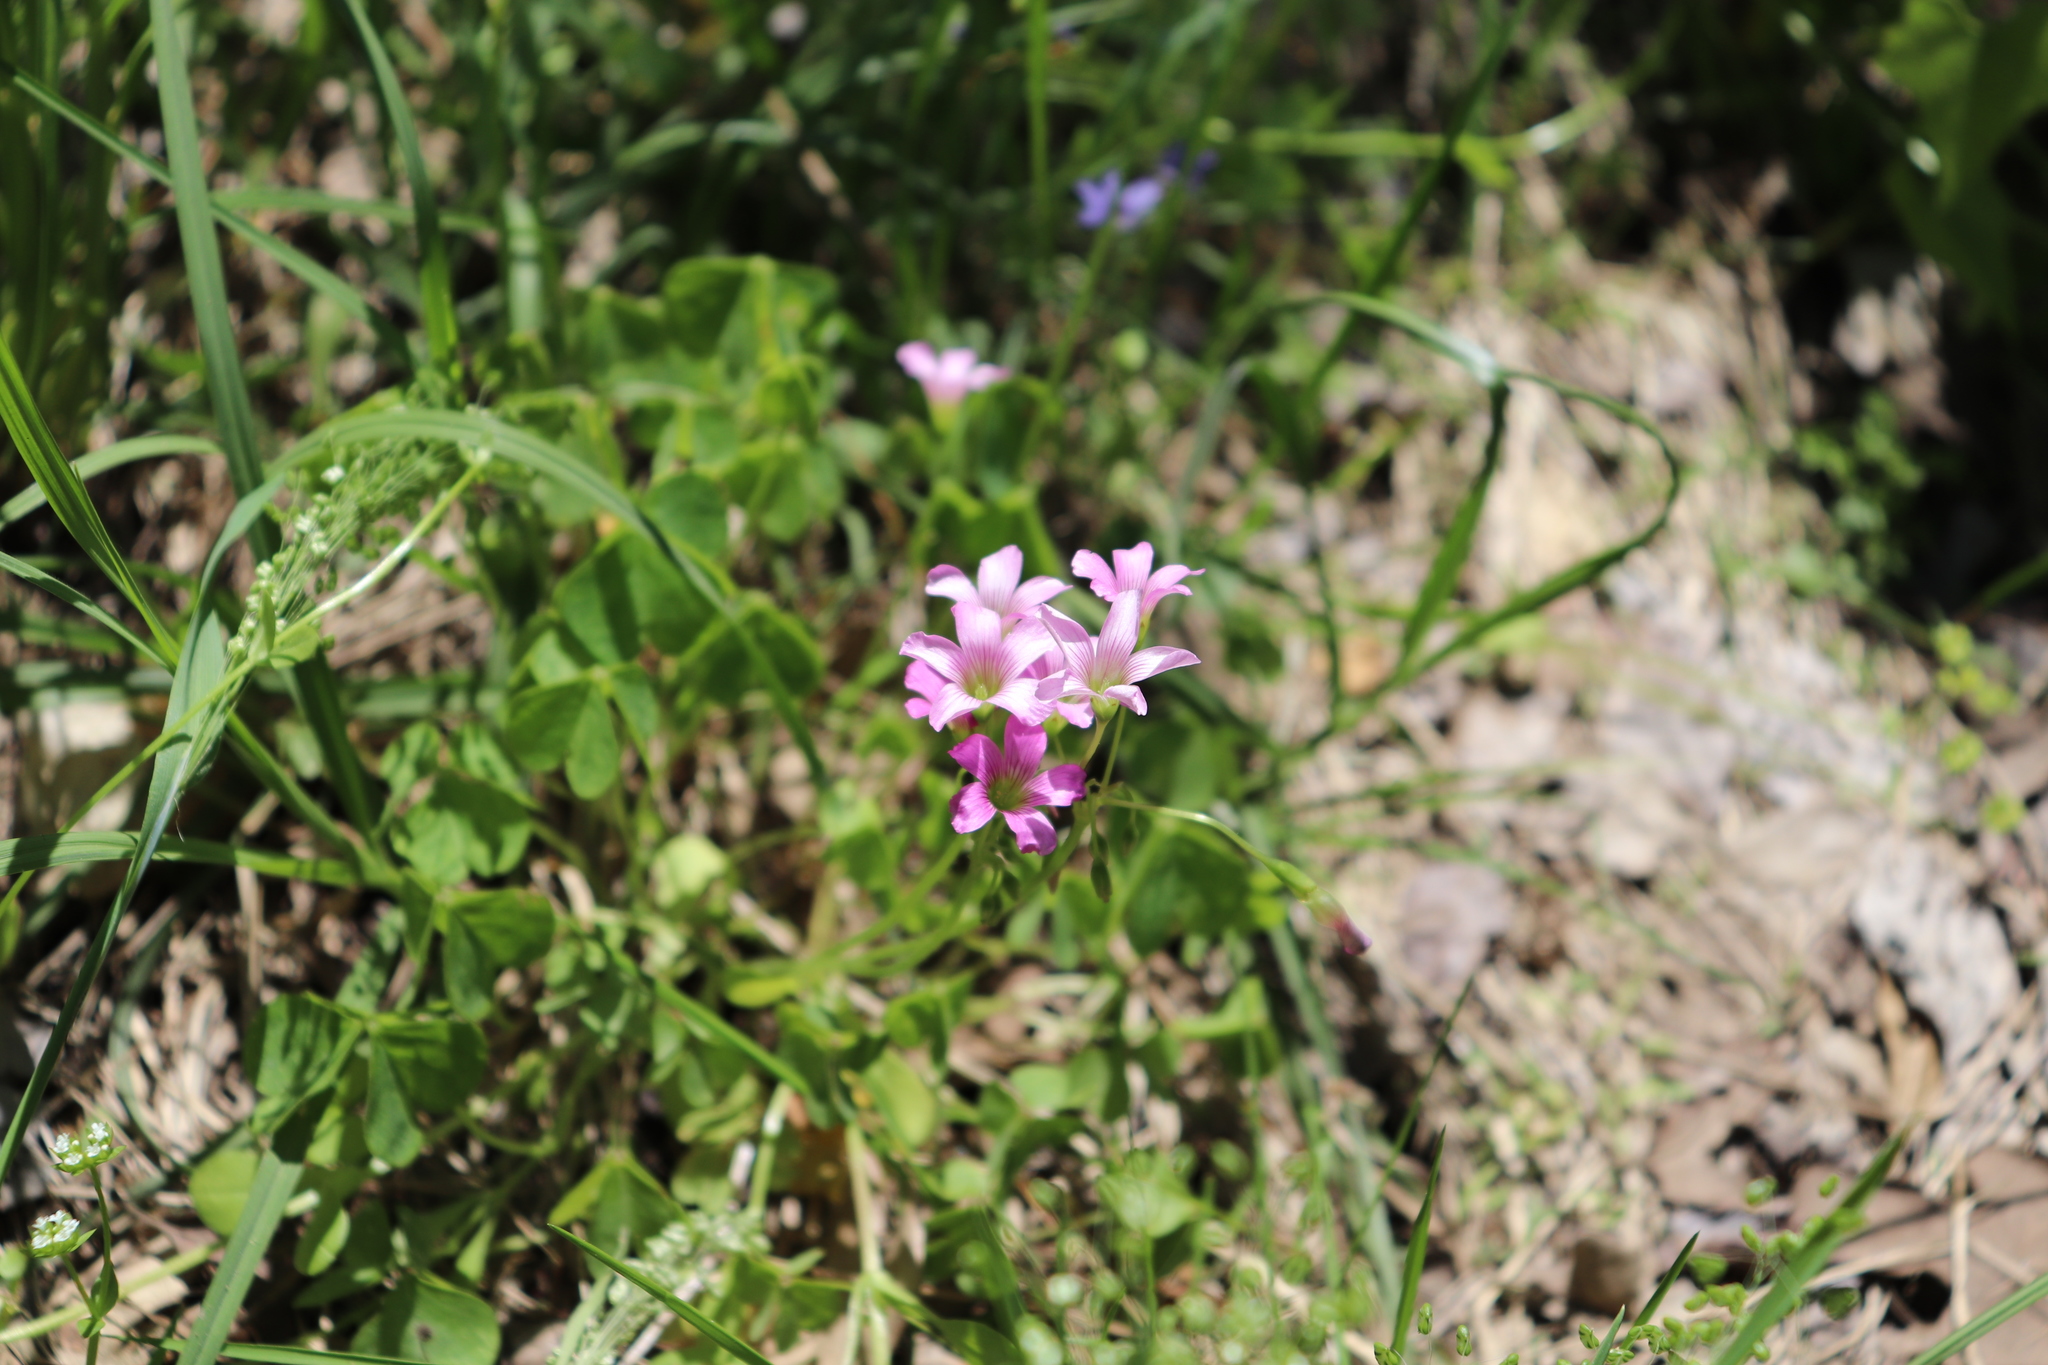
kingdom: Plantae
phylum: Tracheophyta
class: Magnoliopsida
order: Oxalidales
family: Oxalidaceae
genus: Oxalis
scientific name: Oxalis debilis
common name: Large-flowered pink-sorrel
